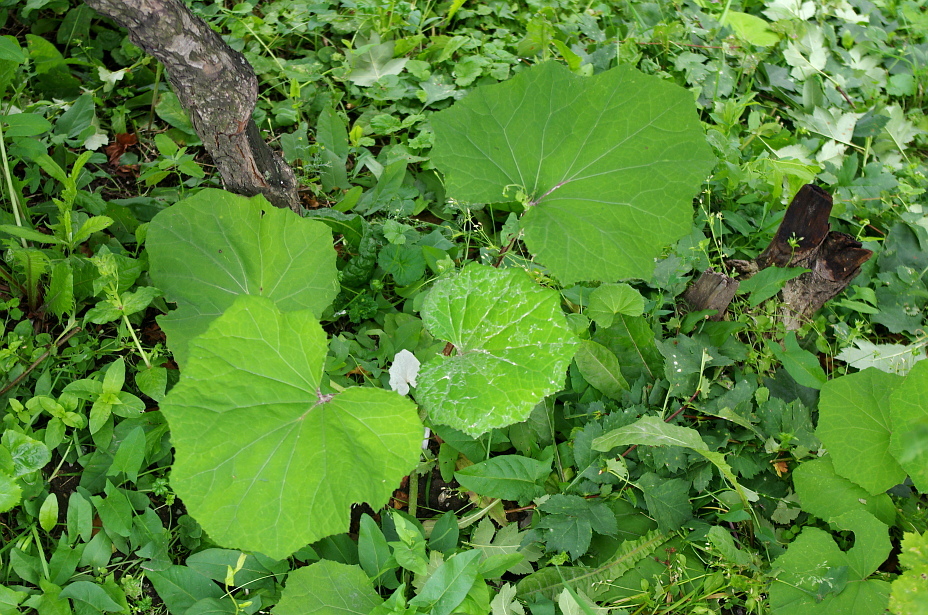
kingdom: Plantae
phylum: Tracheophyta
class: Magnoliopsida
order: Asterales
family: Asteraceae
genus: Tussilago
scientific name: Tussilago farfara
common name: Coltsfoot
